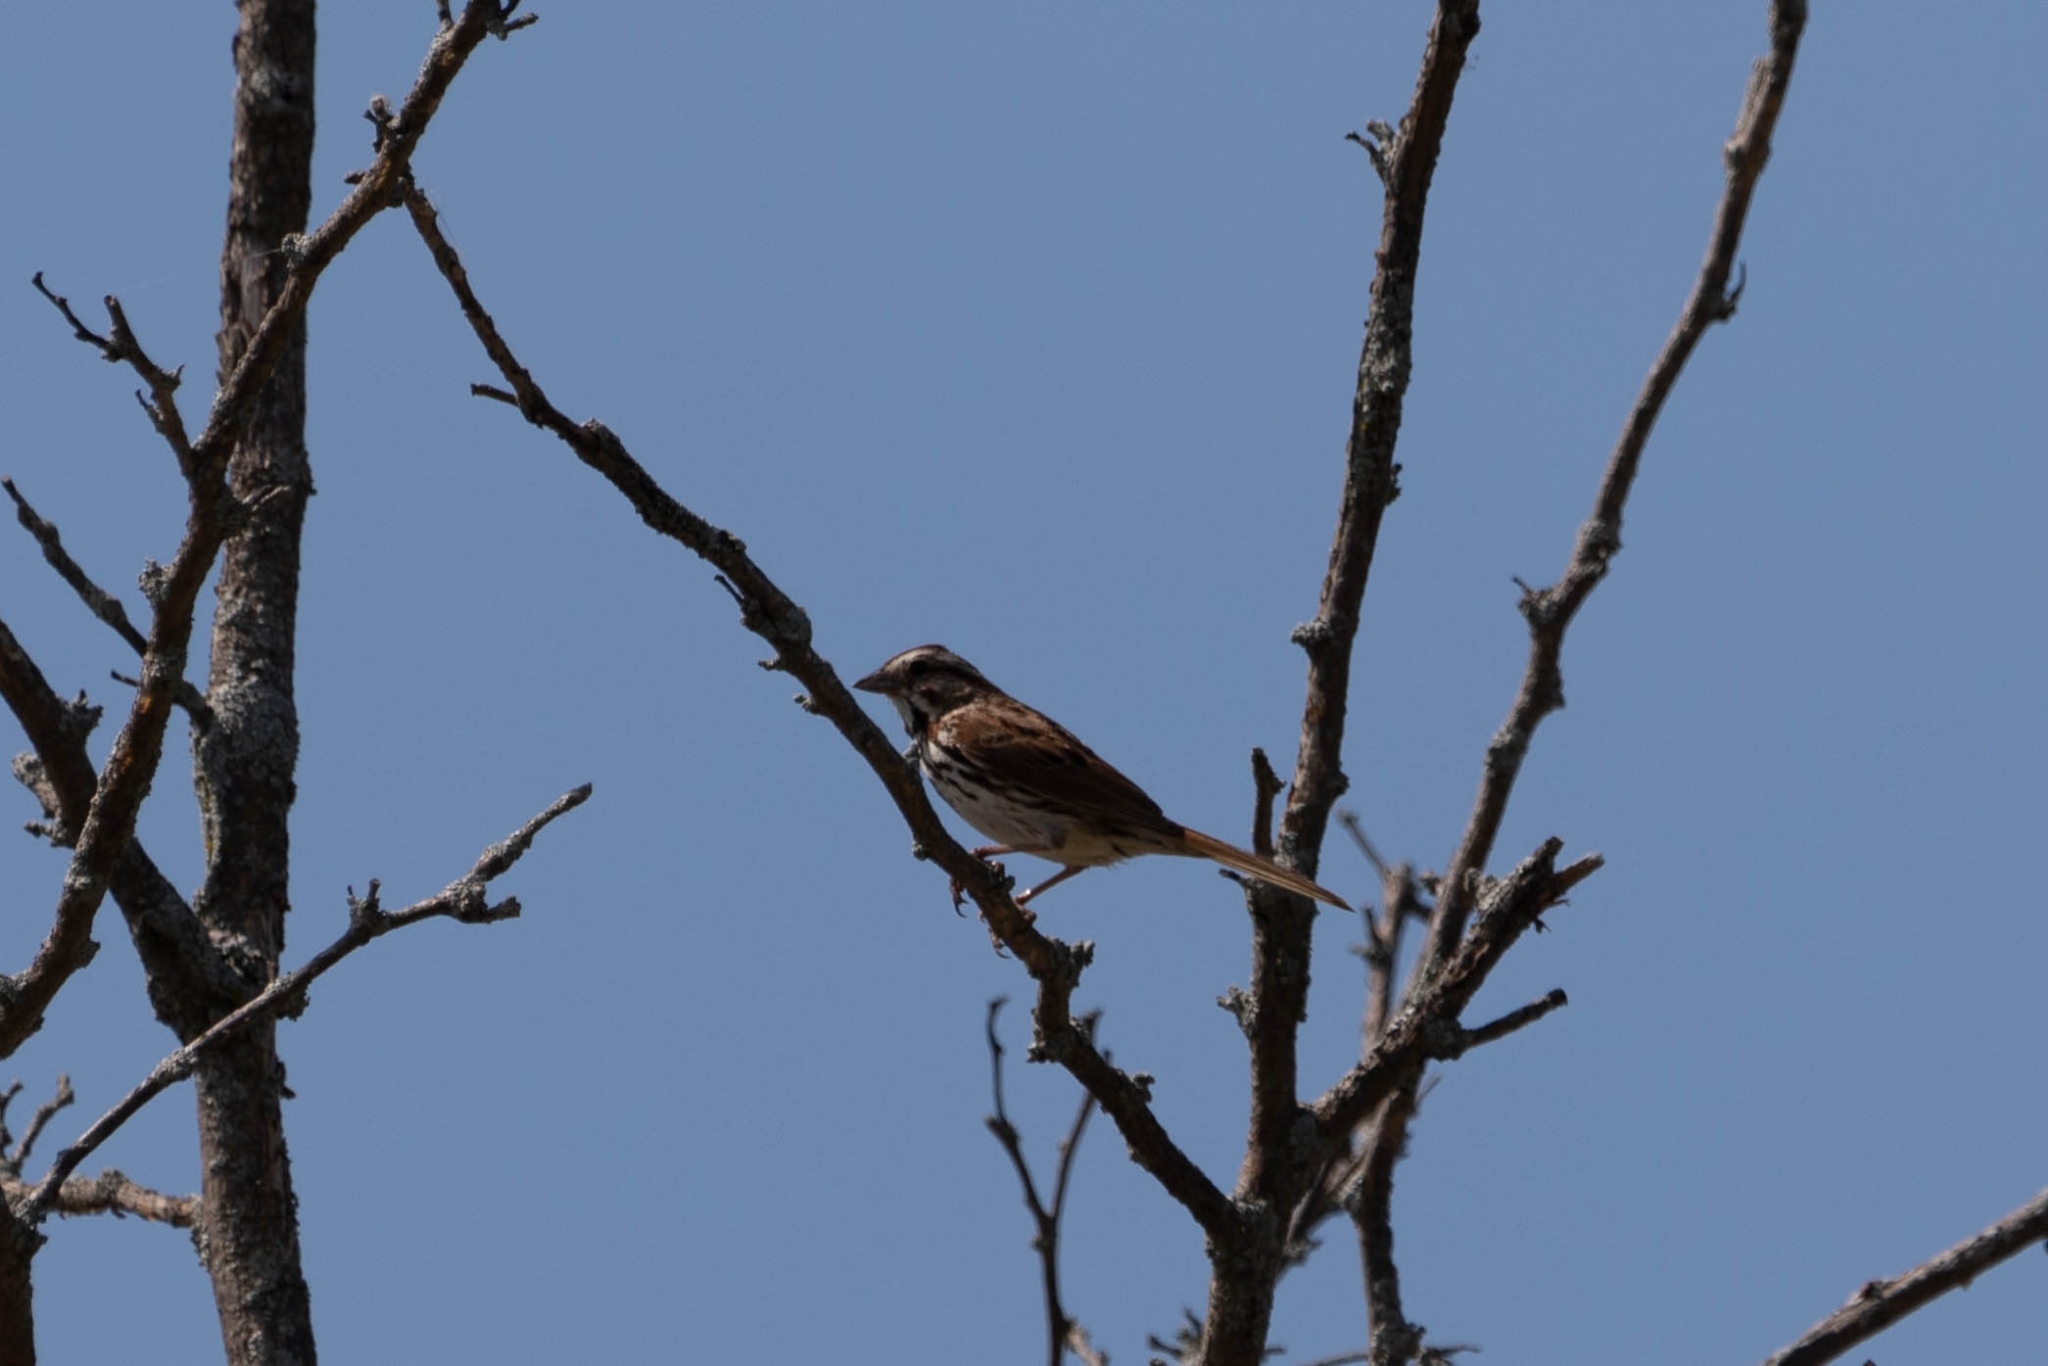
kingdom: Animalia
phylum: Chordata
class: Aves
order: Passeriformes
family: Passerellidae
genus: Melospiza
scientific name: Melospiza melodia
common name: Song sparrow
